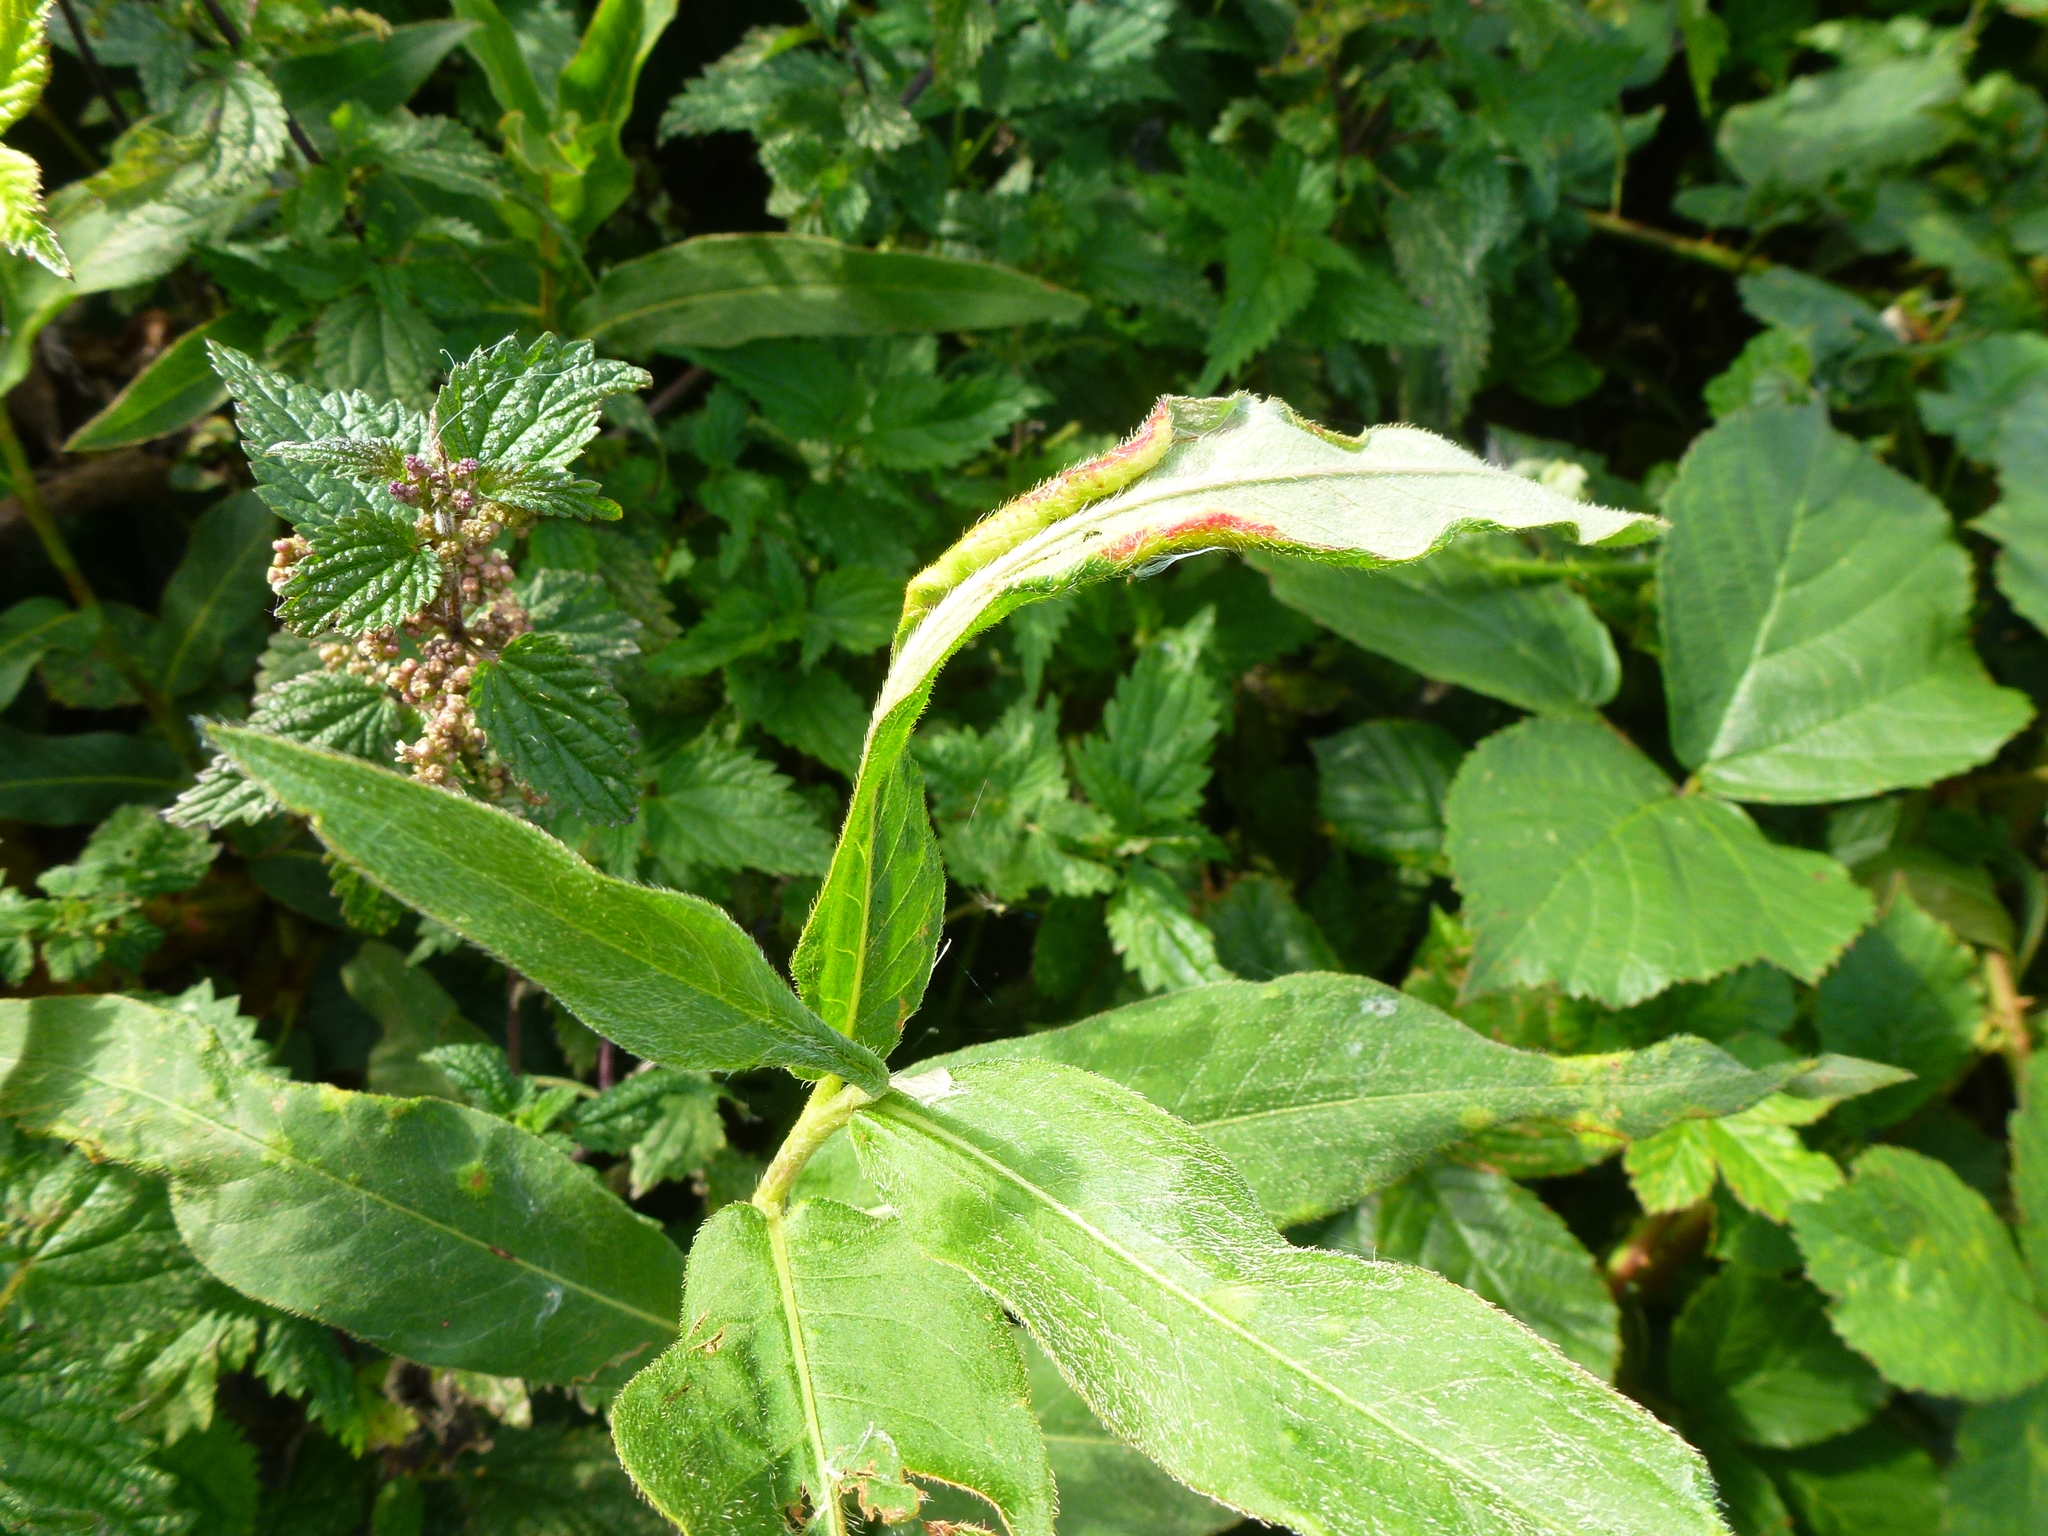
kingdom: Animalia
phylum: Arthropoda
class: Insecta
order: Diptera
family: Cecidomyiidae
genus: Wachtliella
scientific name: Wachtliella persicariae
